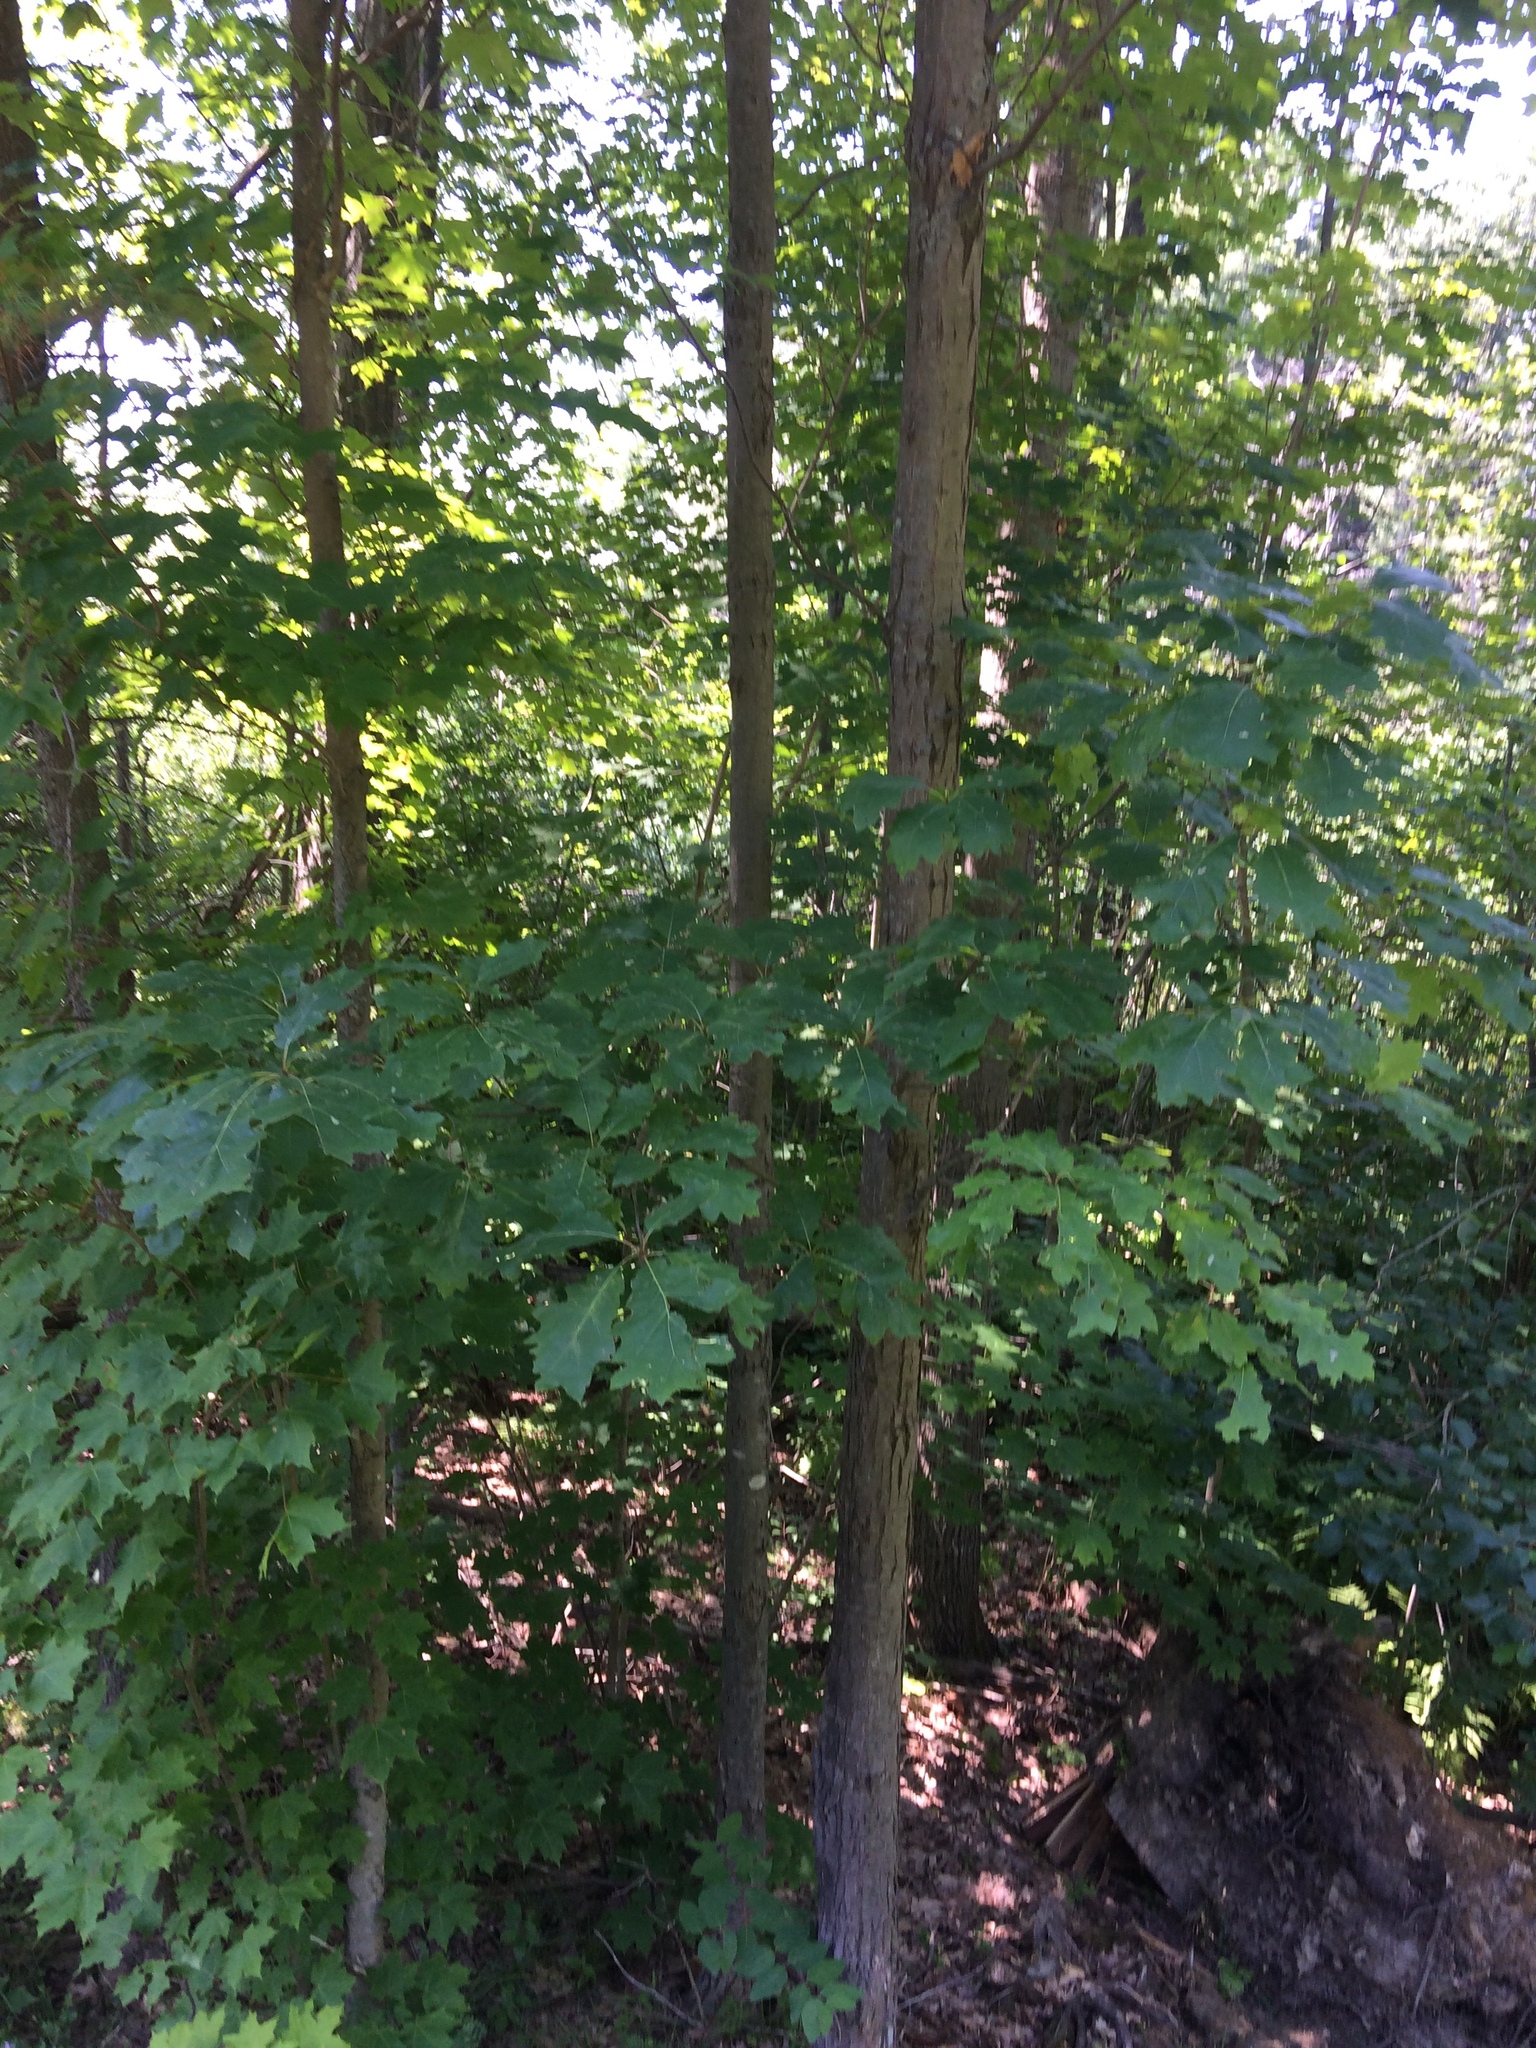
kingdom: Plantae
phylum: Tracheophyta
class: Magnoliopsida
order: Fagales
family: Fagaceae
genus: Quercus
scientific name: Quercus rubra
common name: Red oak
